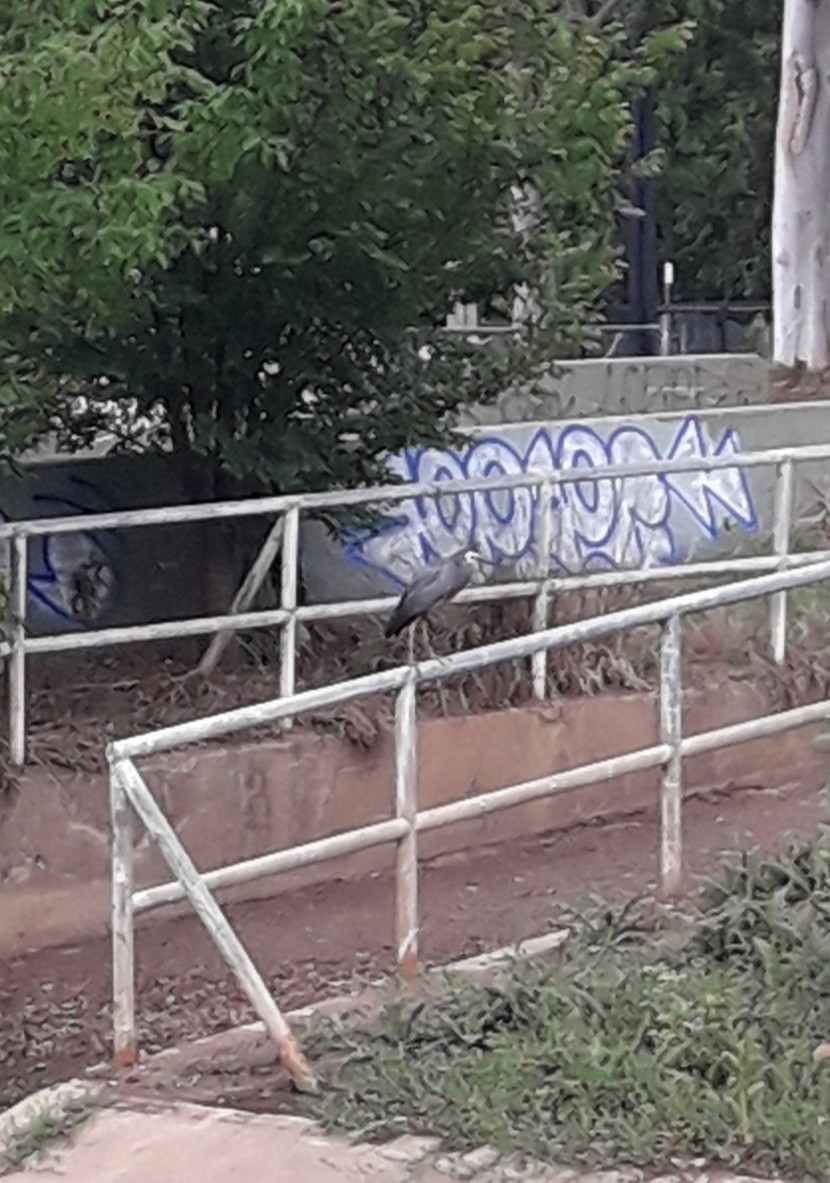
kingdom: Animalia
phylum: Chordata
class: Aves
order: Pelecaniformes
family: Ardeidae
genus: Egretta
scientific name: Egretta novaehollandiae
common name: White-faced heron
